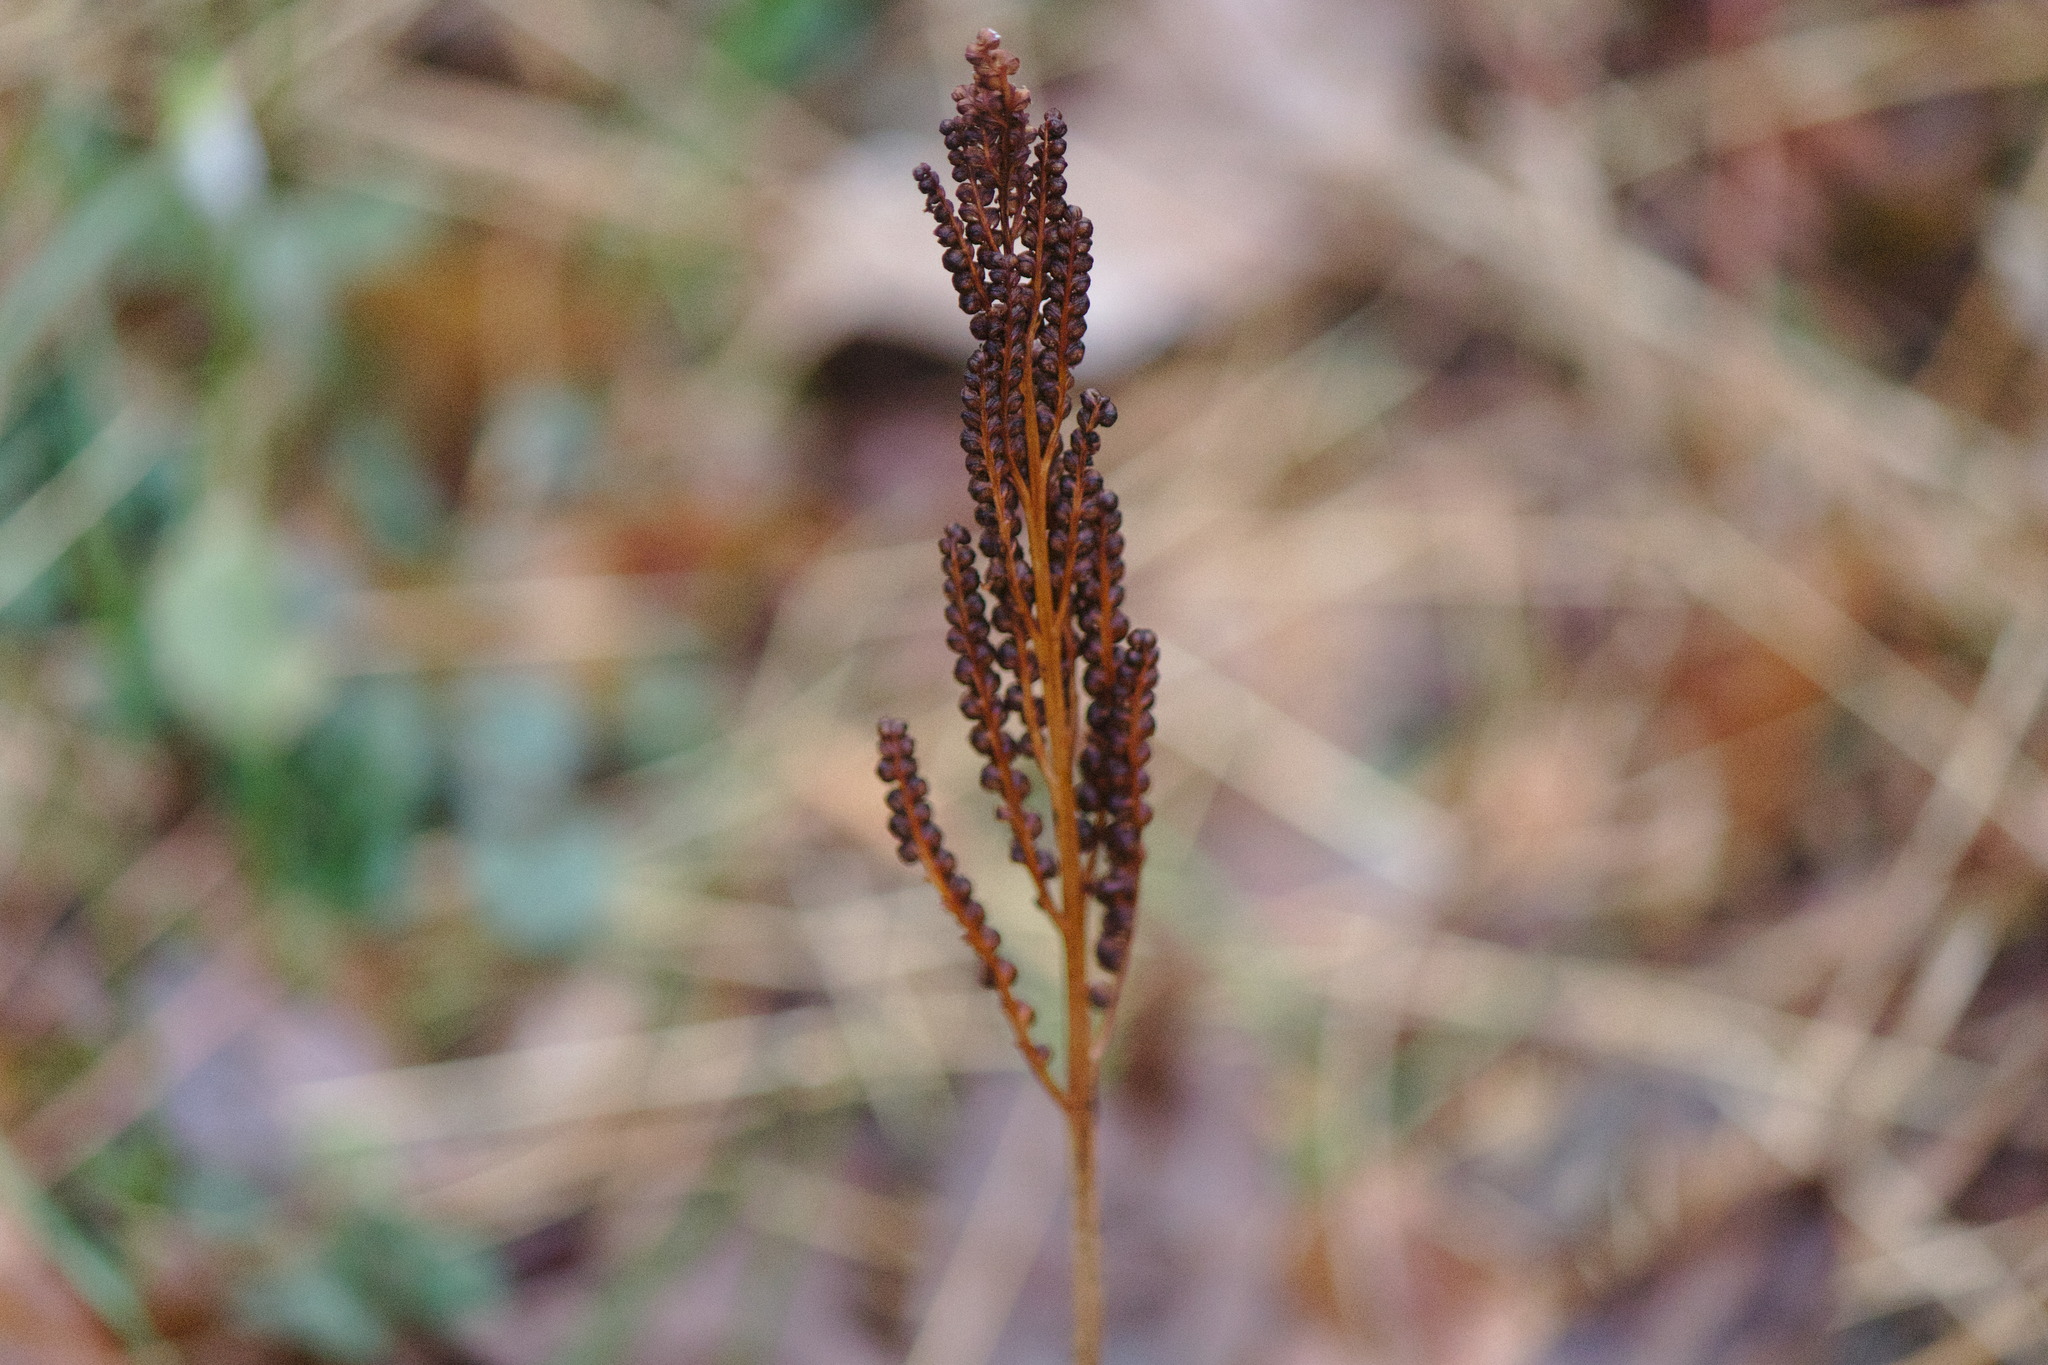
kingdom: Plantae
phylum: Tracheophyta
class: Polypodiopsida
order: Polypodiales
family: Onocleaceae
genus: Onoclea
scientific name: Onoclea sensibilis
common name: Sensitive fern
